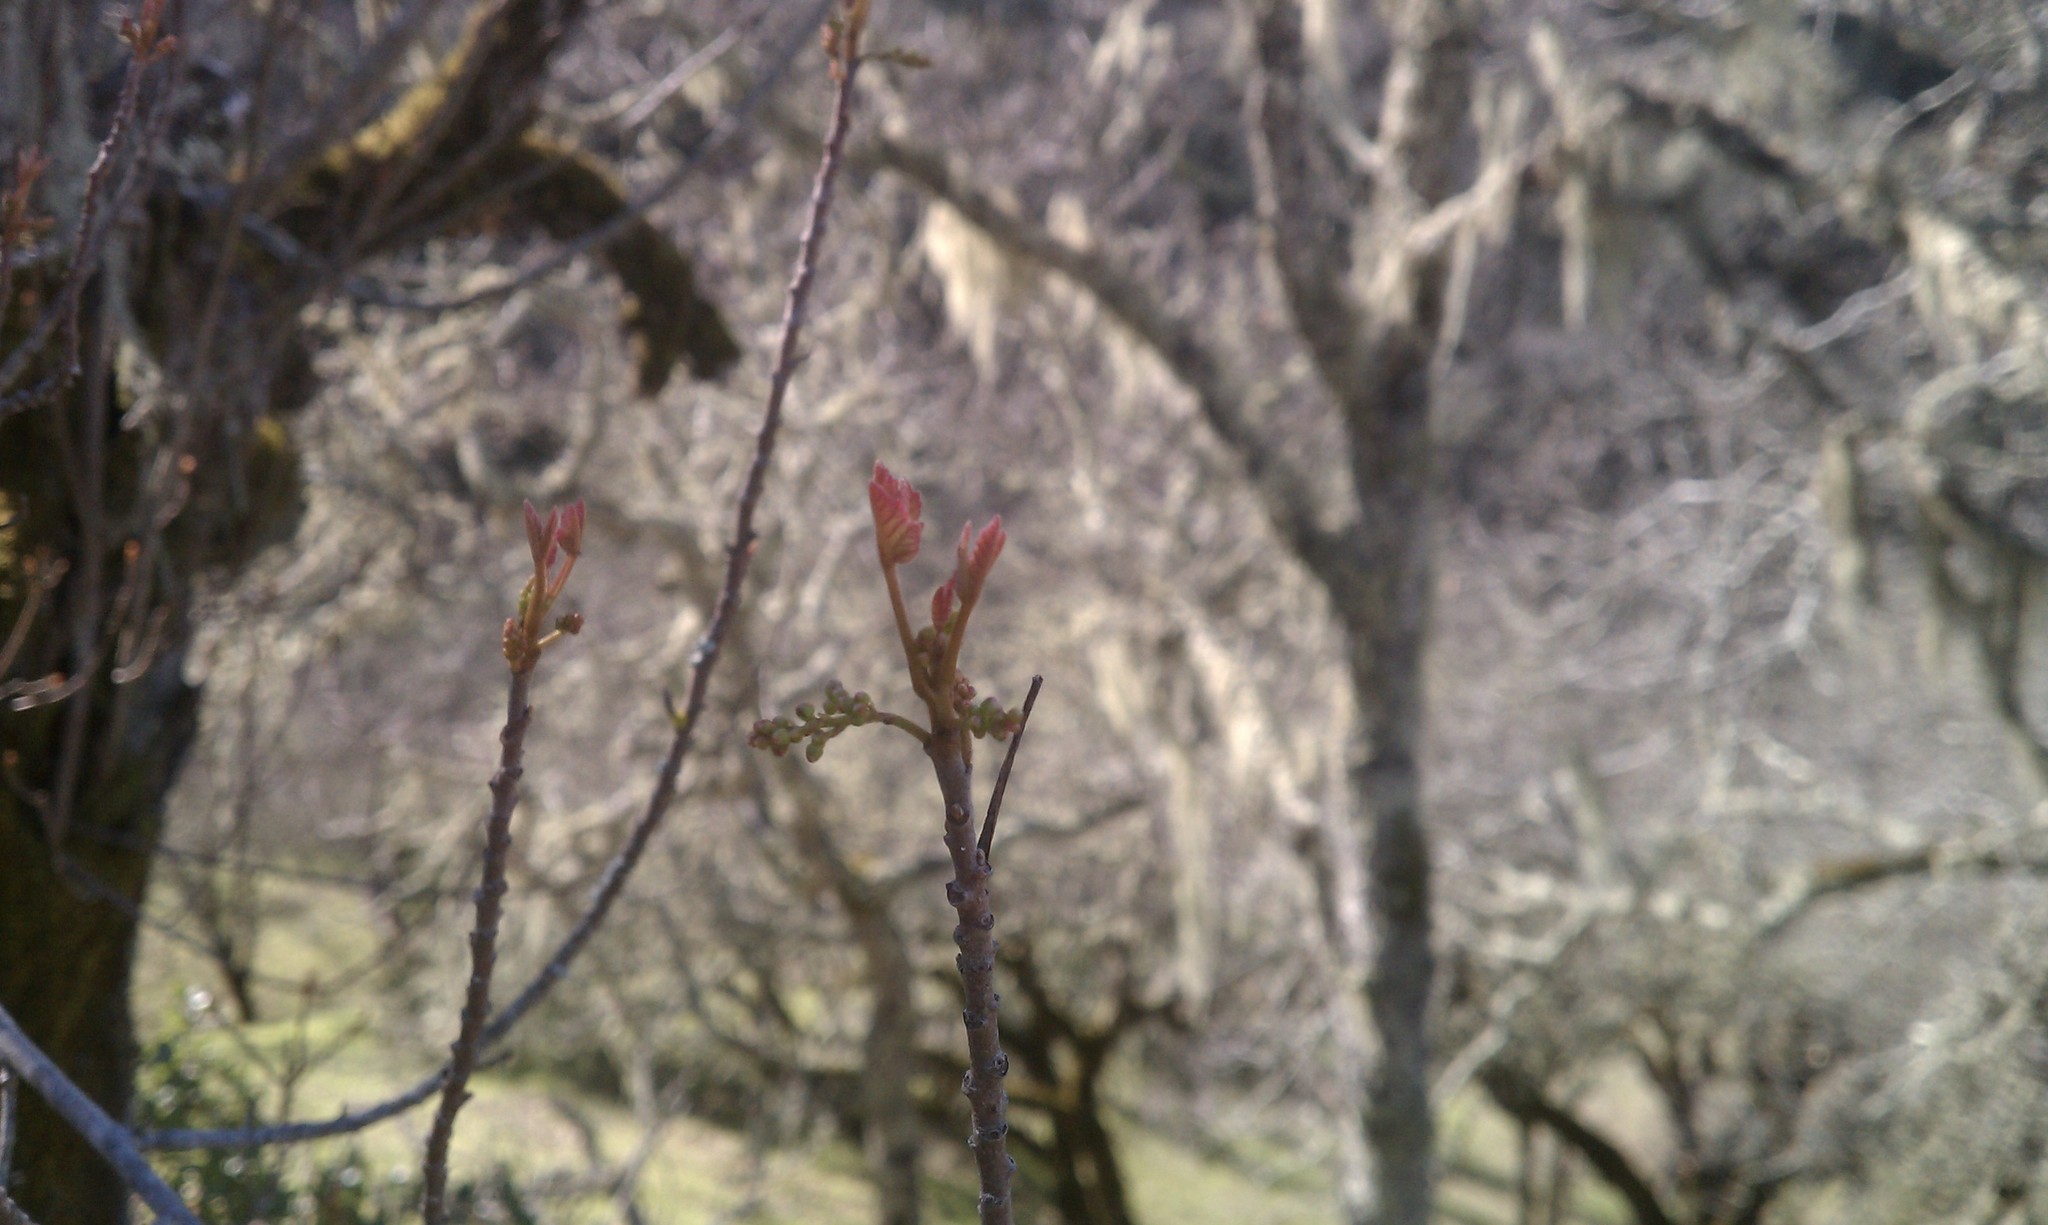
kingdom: Plantae
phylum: Tracheophyta
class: Magnoliopsida
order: Sapindales
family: Anacardiaceae
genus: Toxicodendron
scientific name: Toxicodendron diversilobum
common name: Pacific poison-oak
